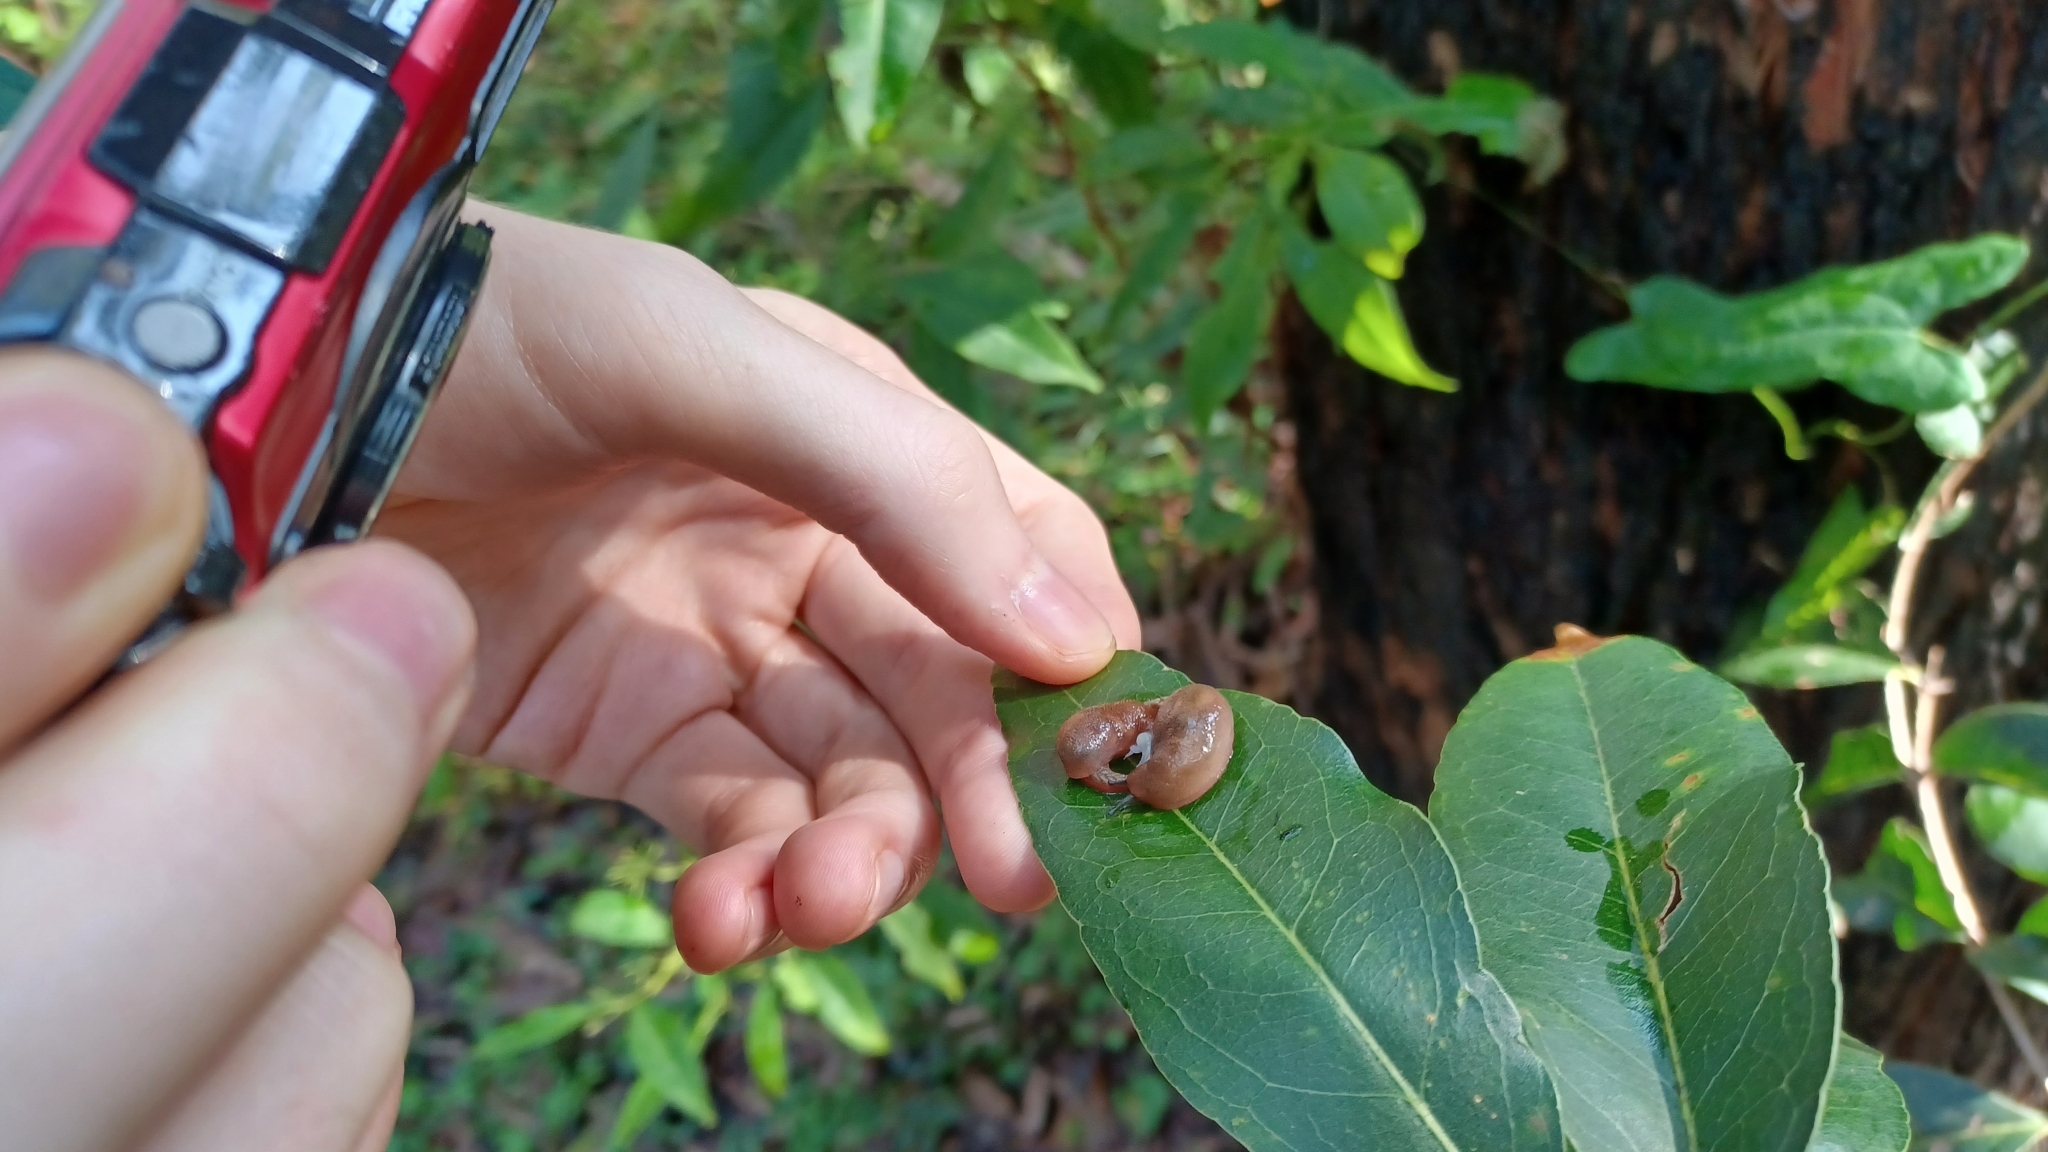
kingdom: Animalia
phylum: Mollusca
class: Gastropoda
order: Stylommatophora
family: Cystopeltidae
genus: Cystopelta
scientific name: Cystopelta septentrionalis
